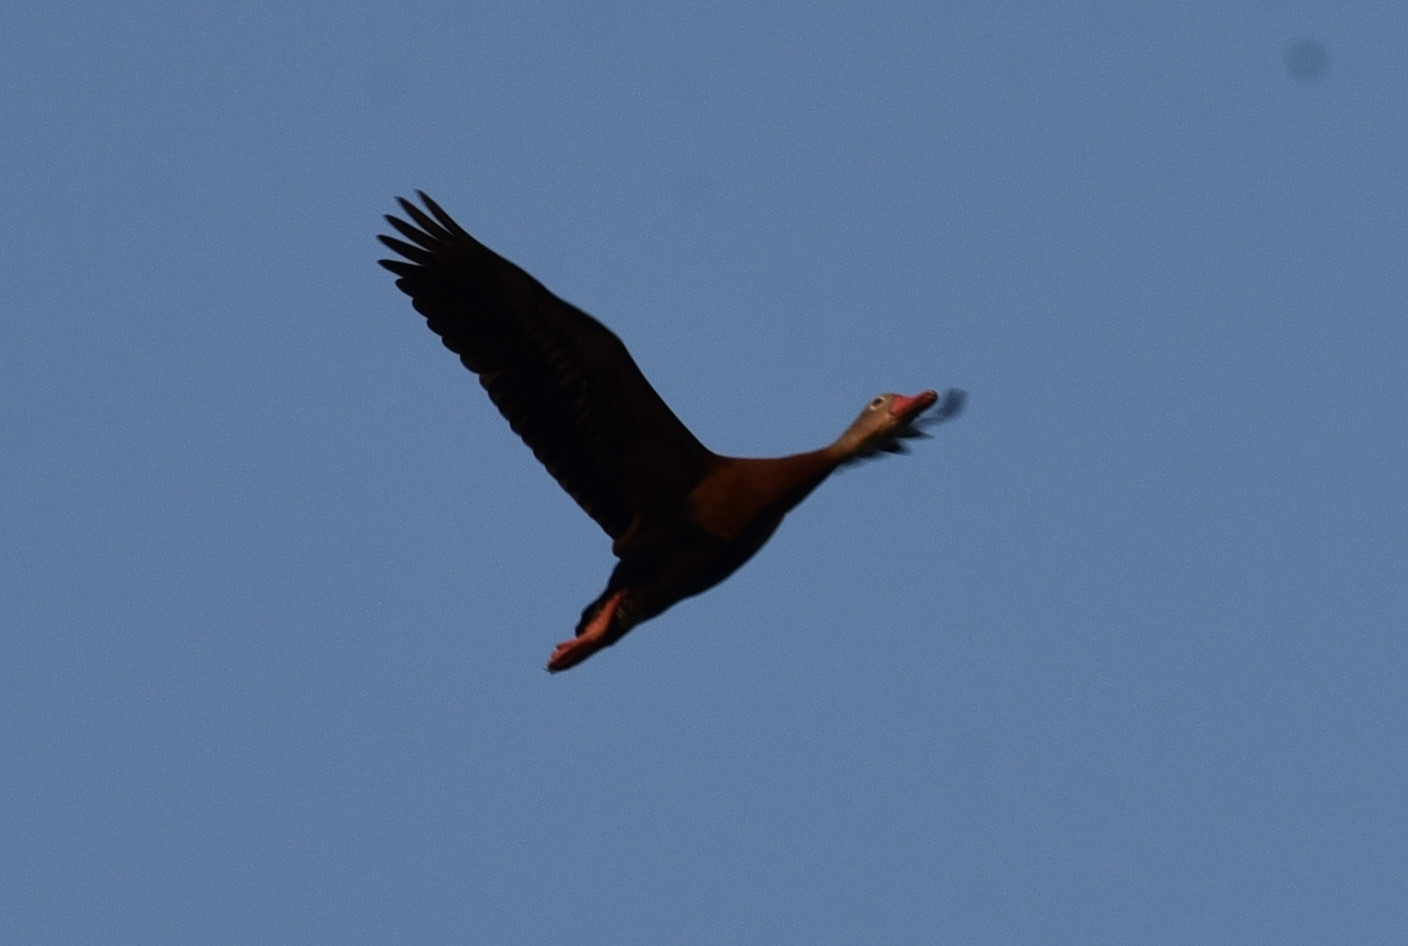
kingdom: Animalia
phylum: Chordata
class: Aves
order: Anseriformes
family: Anatidae
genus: Dendrocygna
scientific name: Dendrocygna autumnalis
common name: Black-bellied whistling duck
